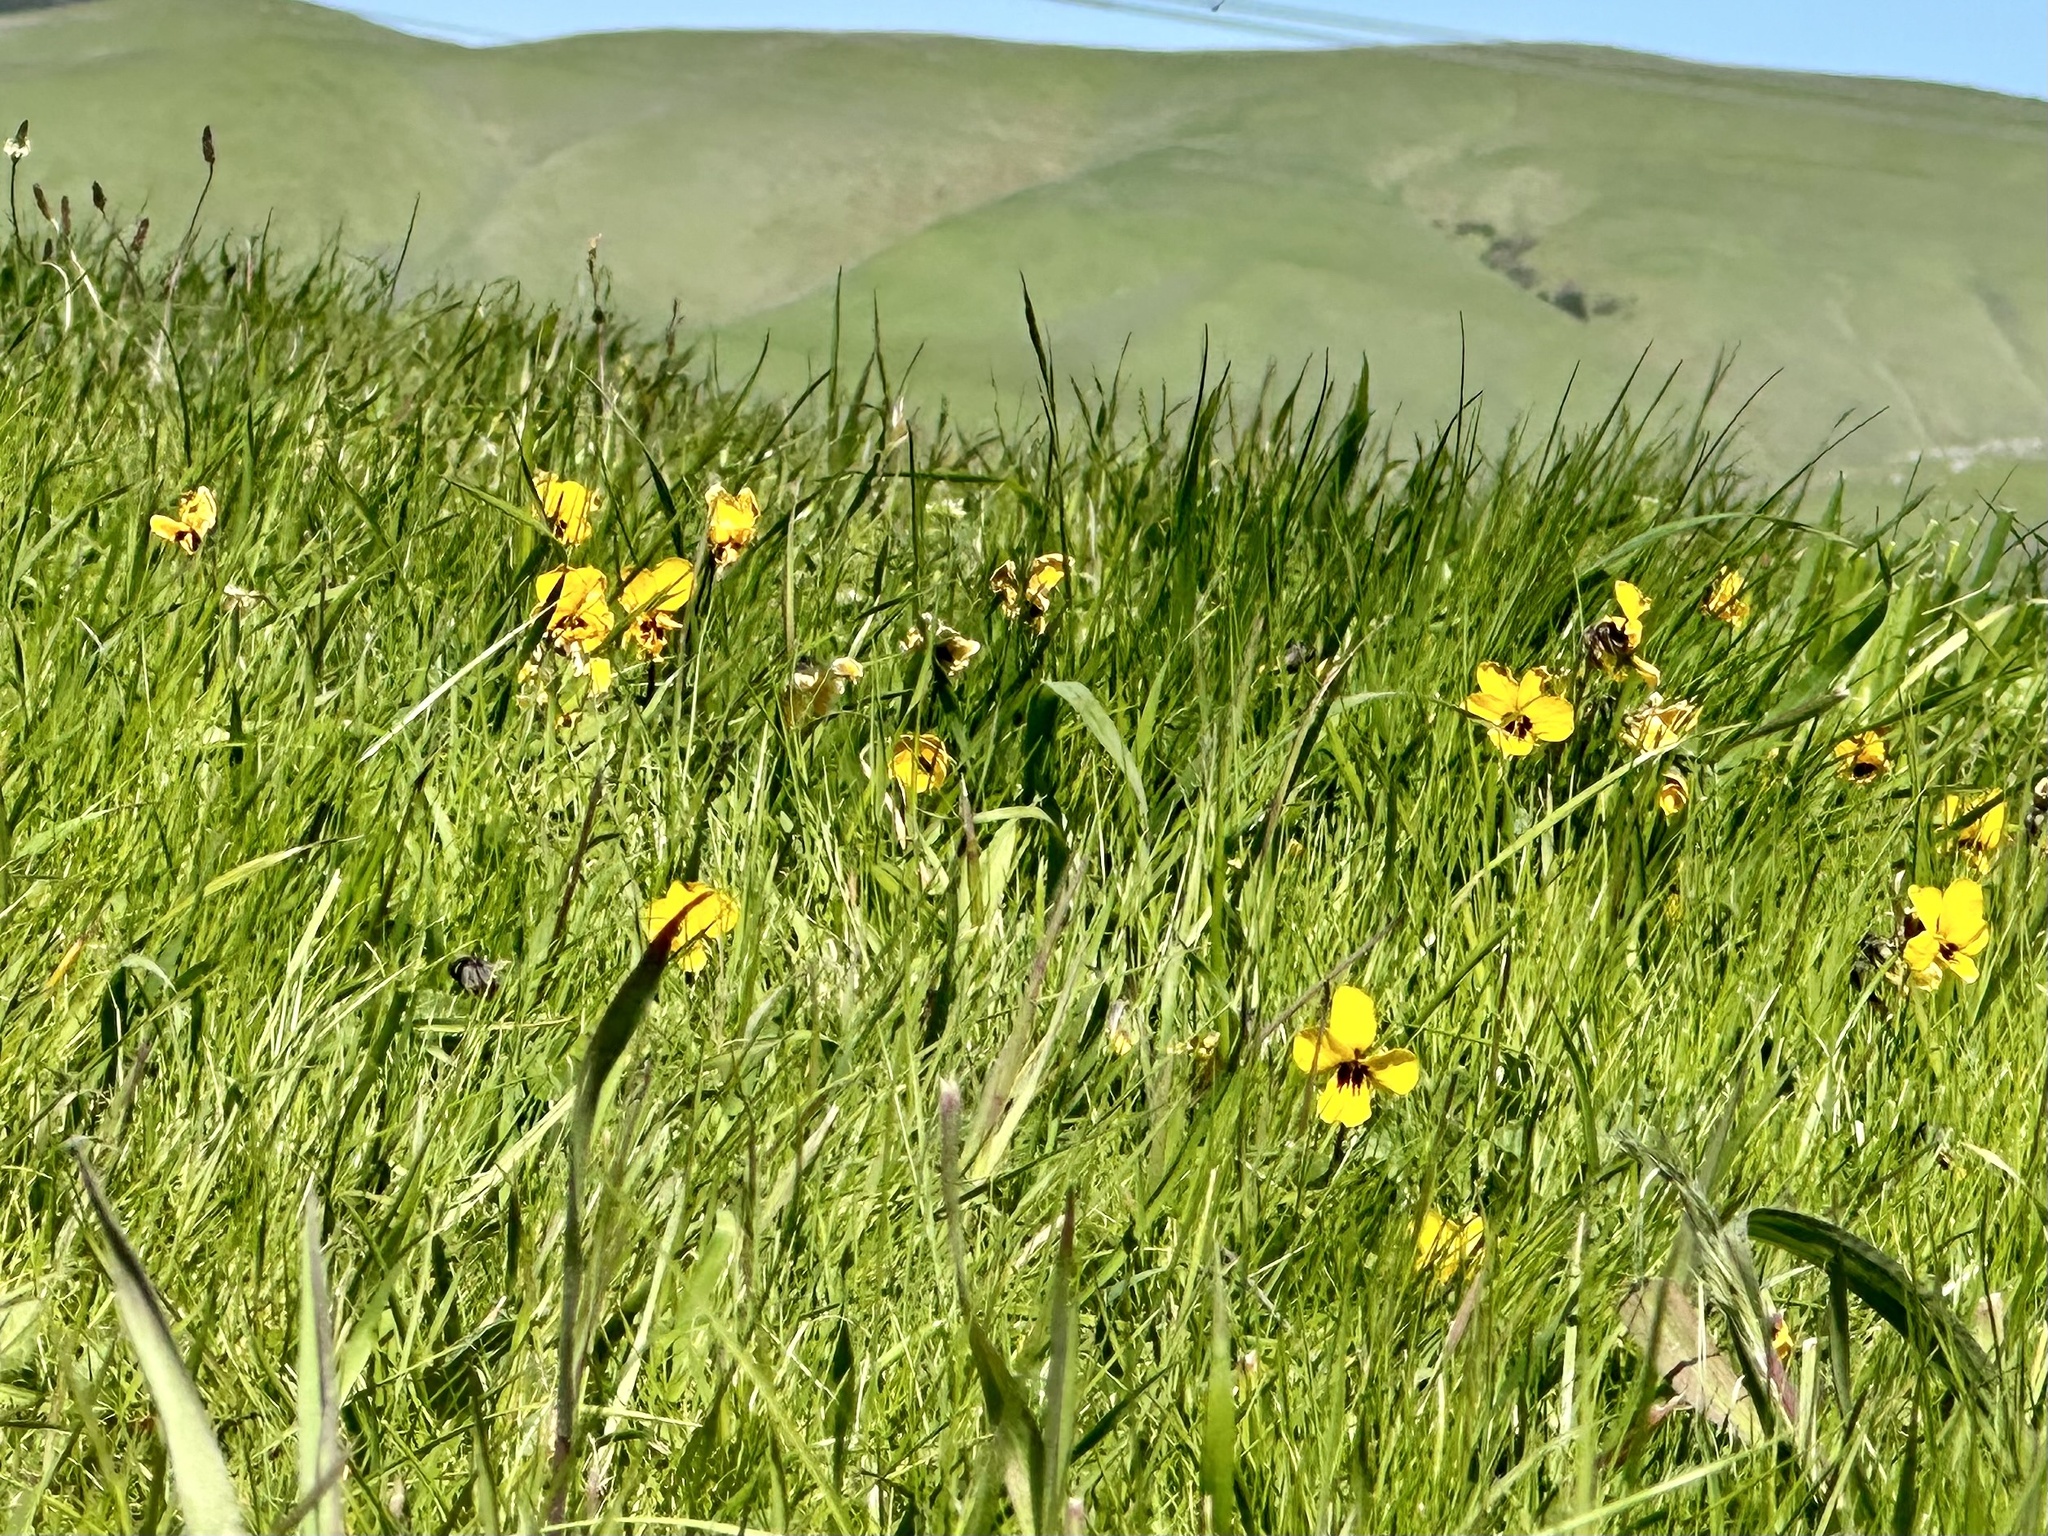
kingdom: Plantae
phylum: Tracheophyta
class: Magnoliopsida
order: Malpighiales
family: Violaceae
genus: Viola
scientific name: Viola pedunculata
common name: California golden violet
